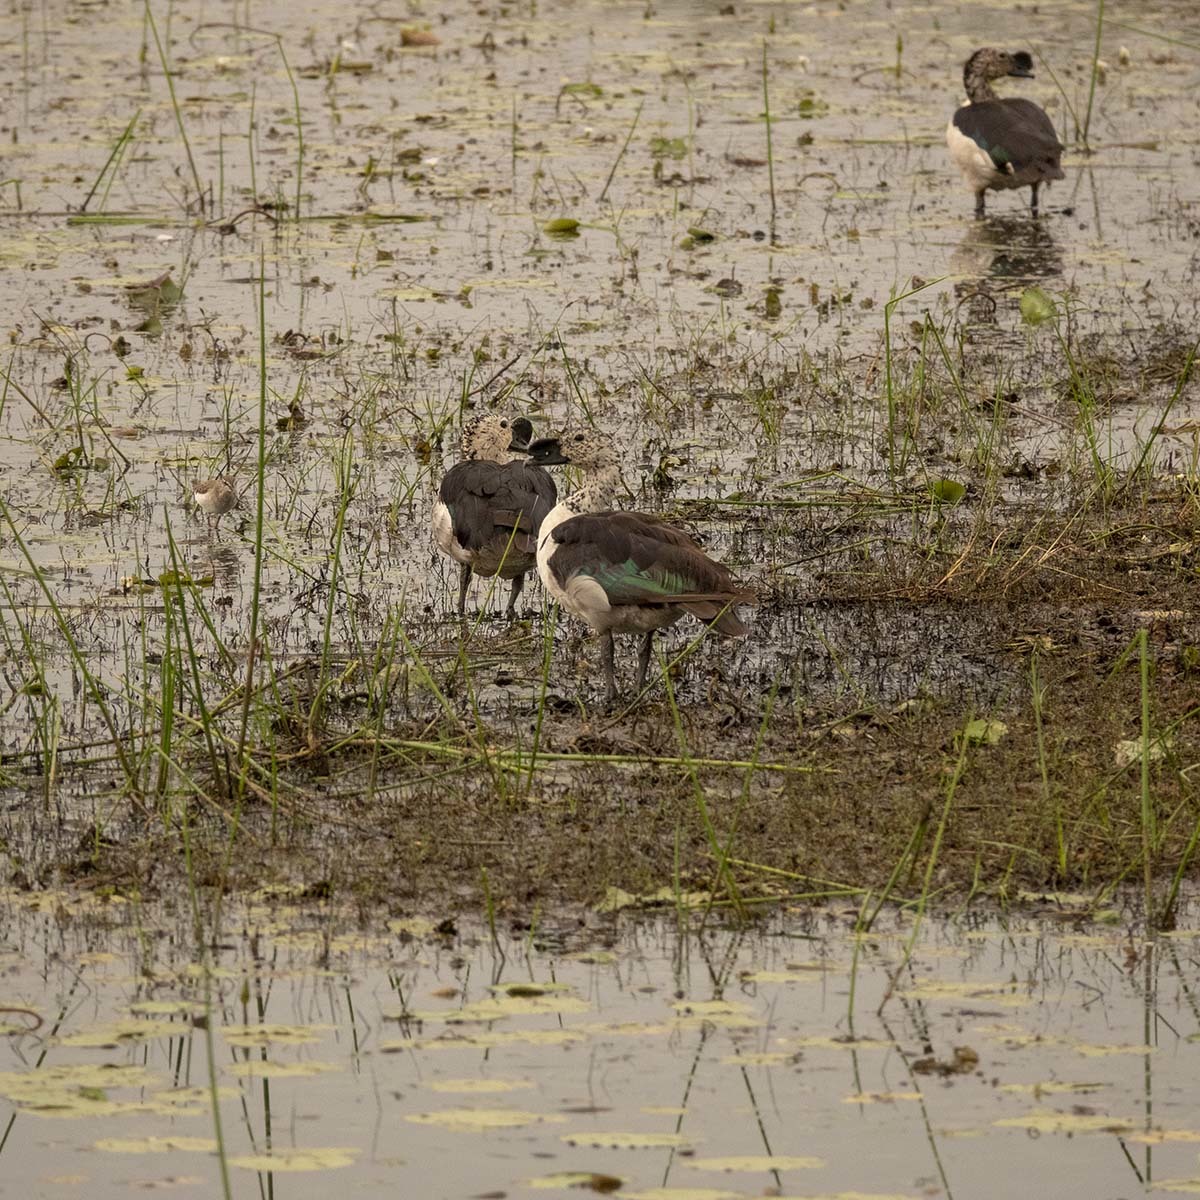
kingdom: Animalia
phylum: Chordata
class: Aves
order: Anseriformes
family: Anatidae
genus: Sarkidiornis
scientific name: Sarkidiornis melanotos
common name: Comb duck
